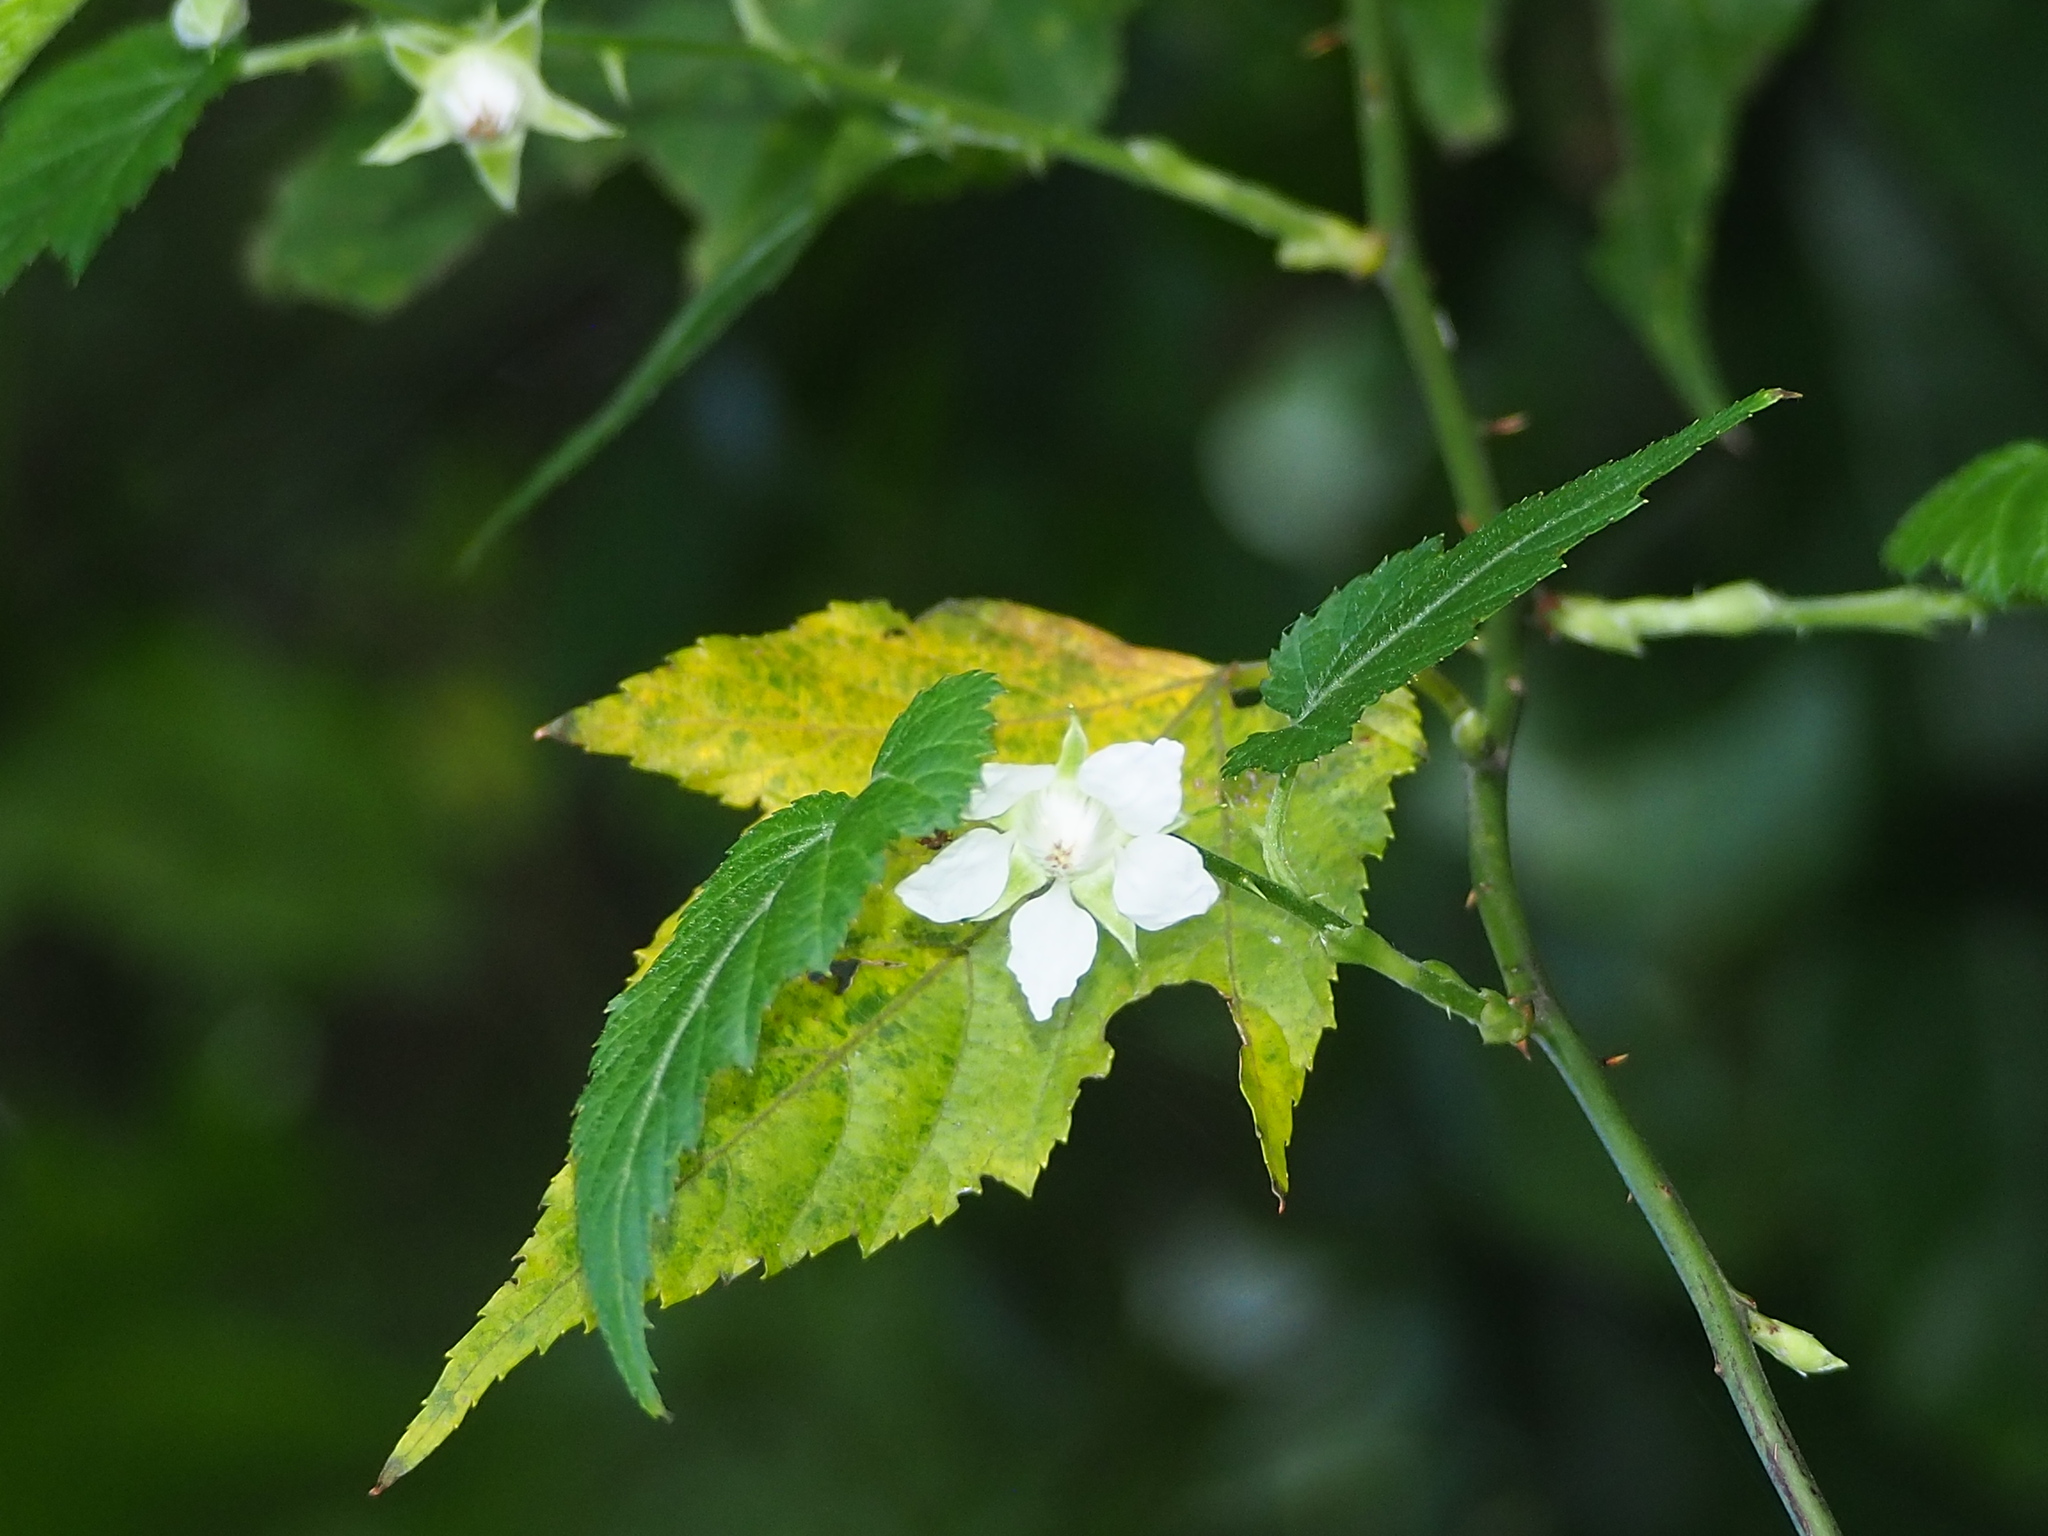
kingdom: Plantae
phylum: Tracheophyta
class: Magnoliopsida
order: Rosales
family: Rosaceae
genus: Rubus
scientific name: Rubus corchorifolius
